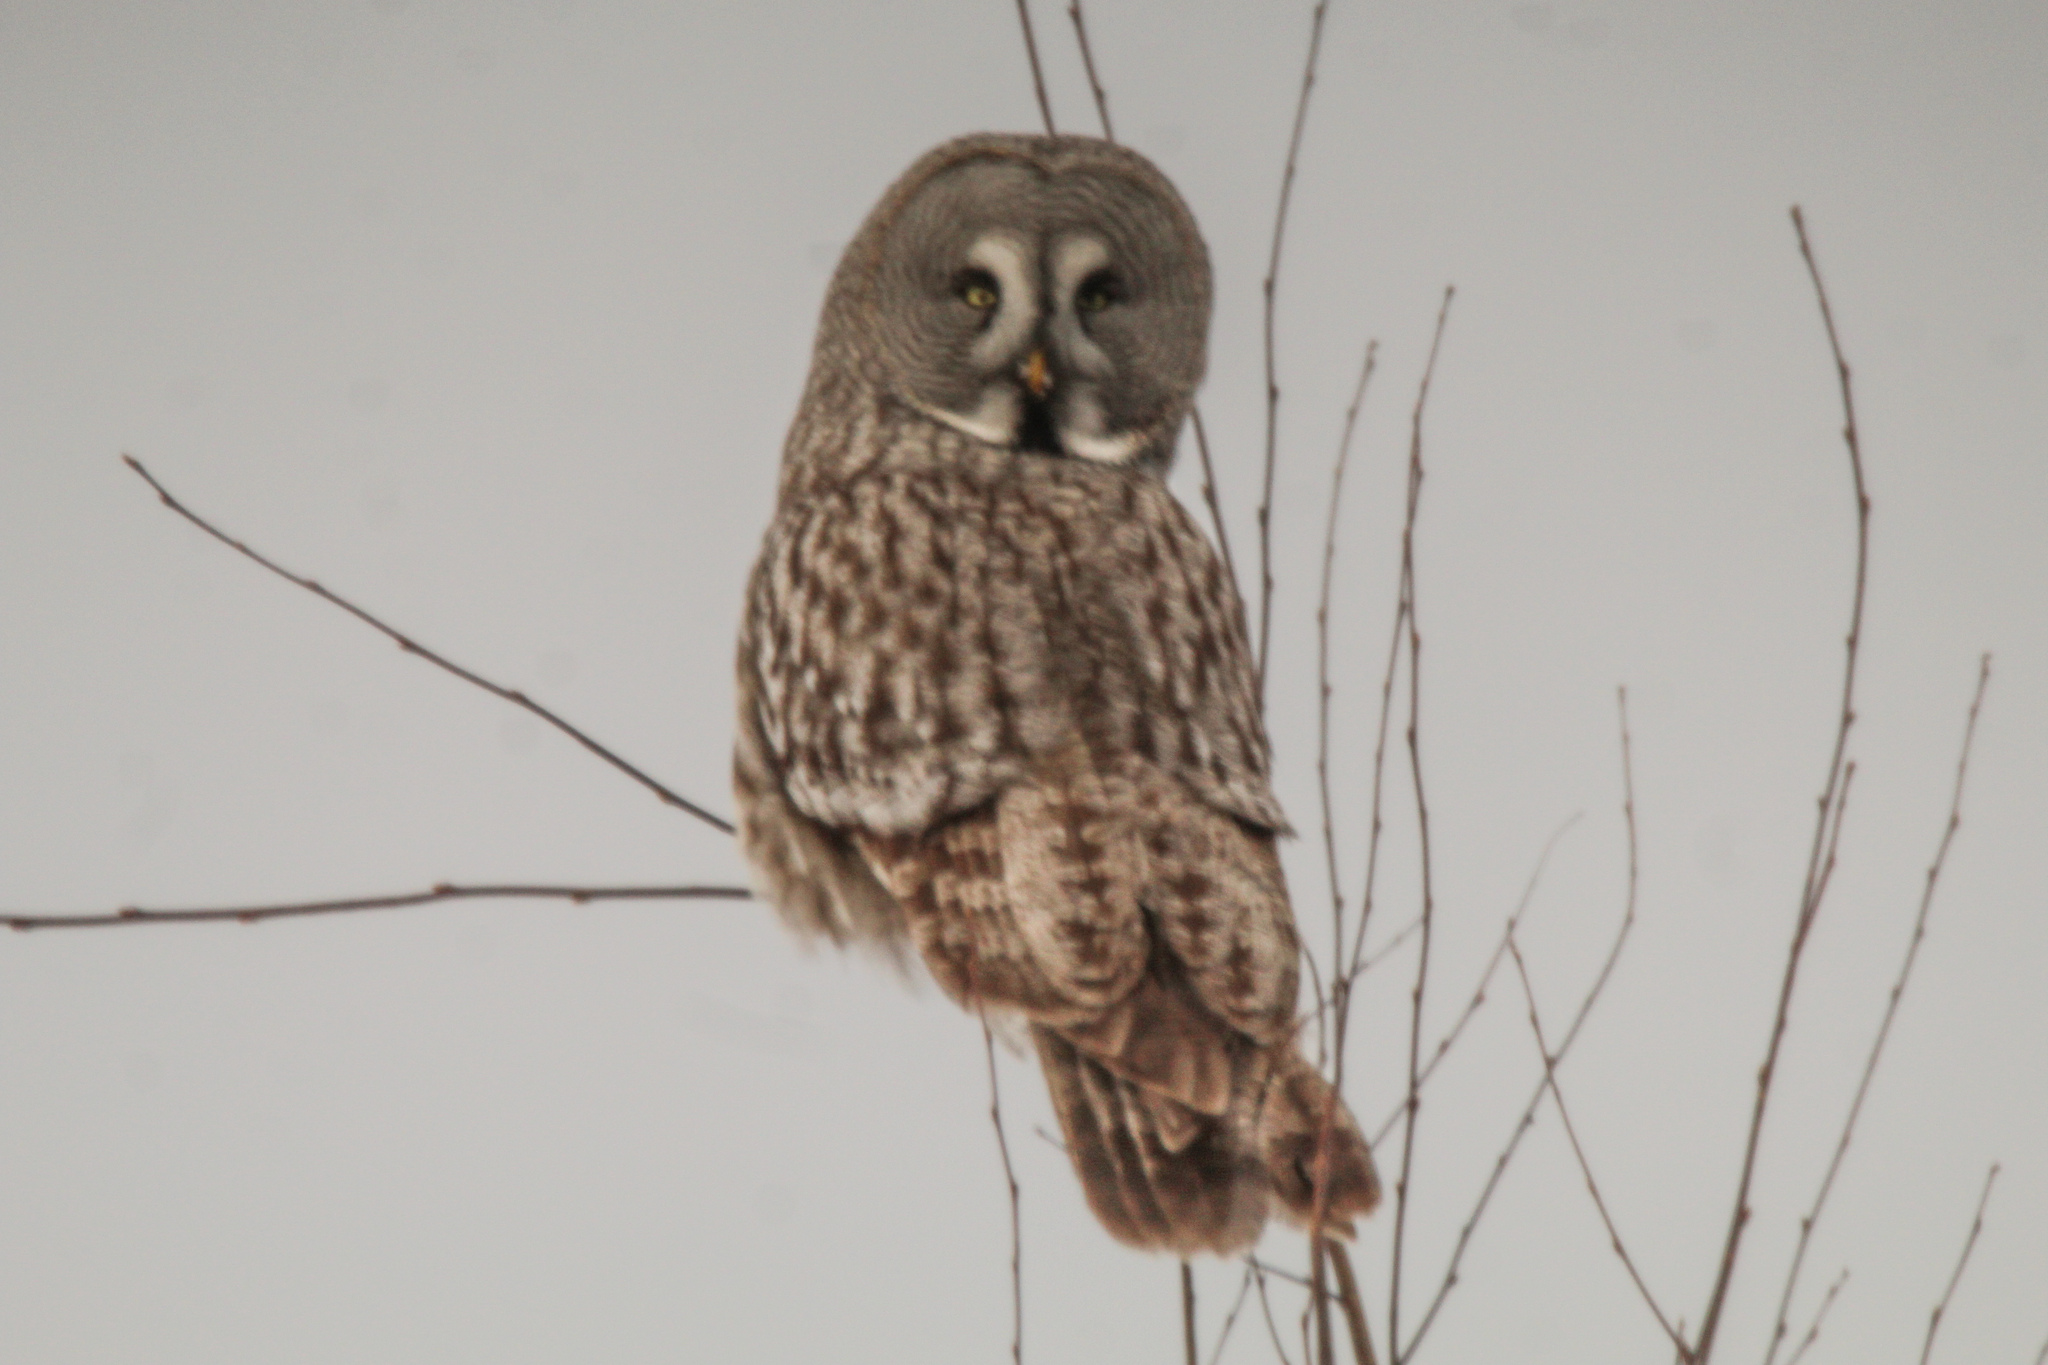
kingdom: Animalia
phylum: Chordata
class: Aves
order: Strigiformes
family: Strigidae
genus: Strix
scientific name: Strix nebulosa
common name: Great grey owl
